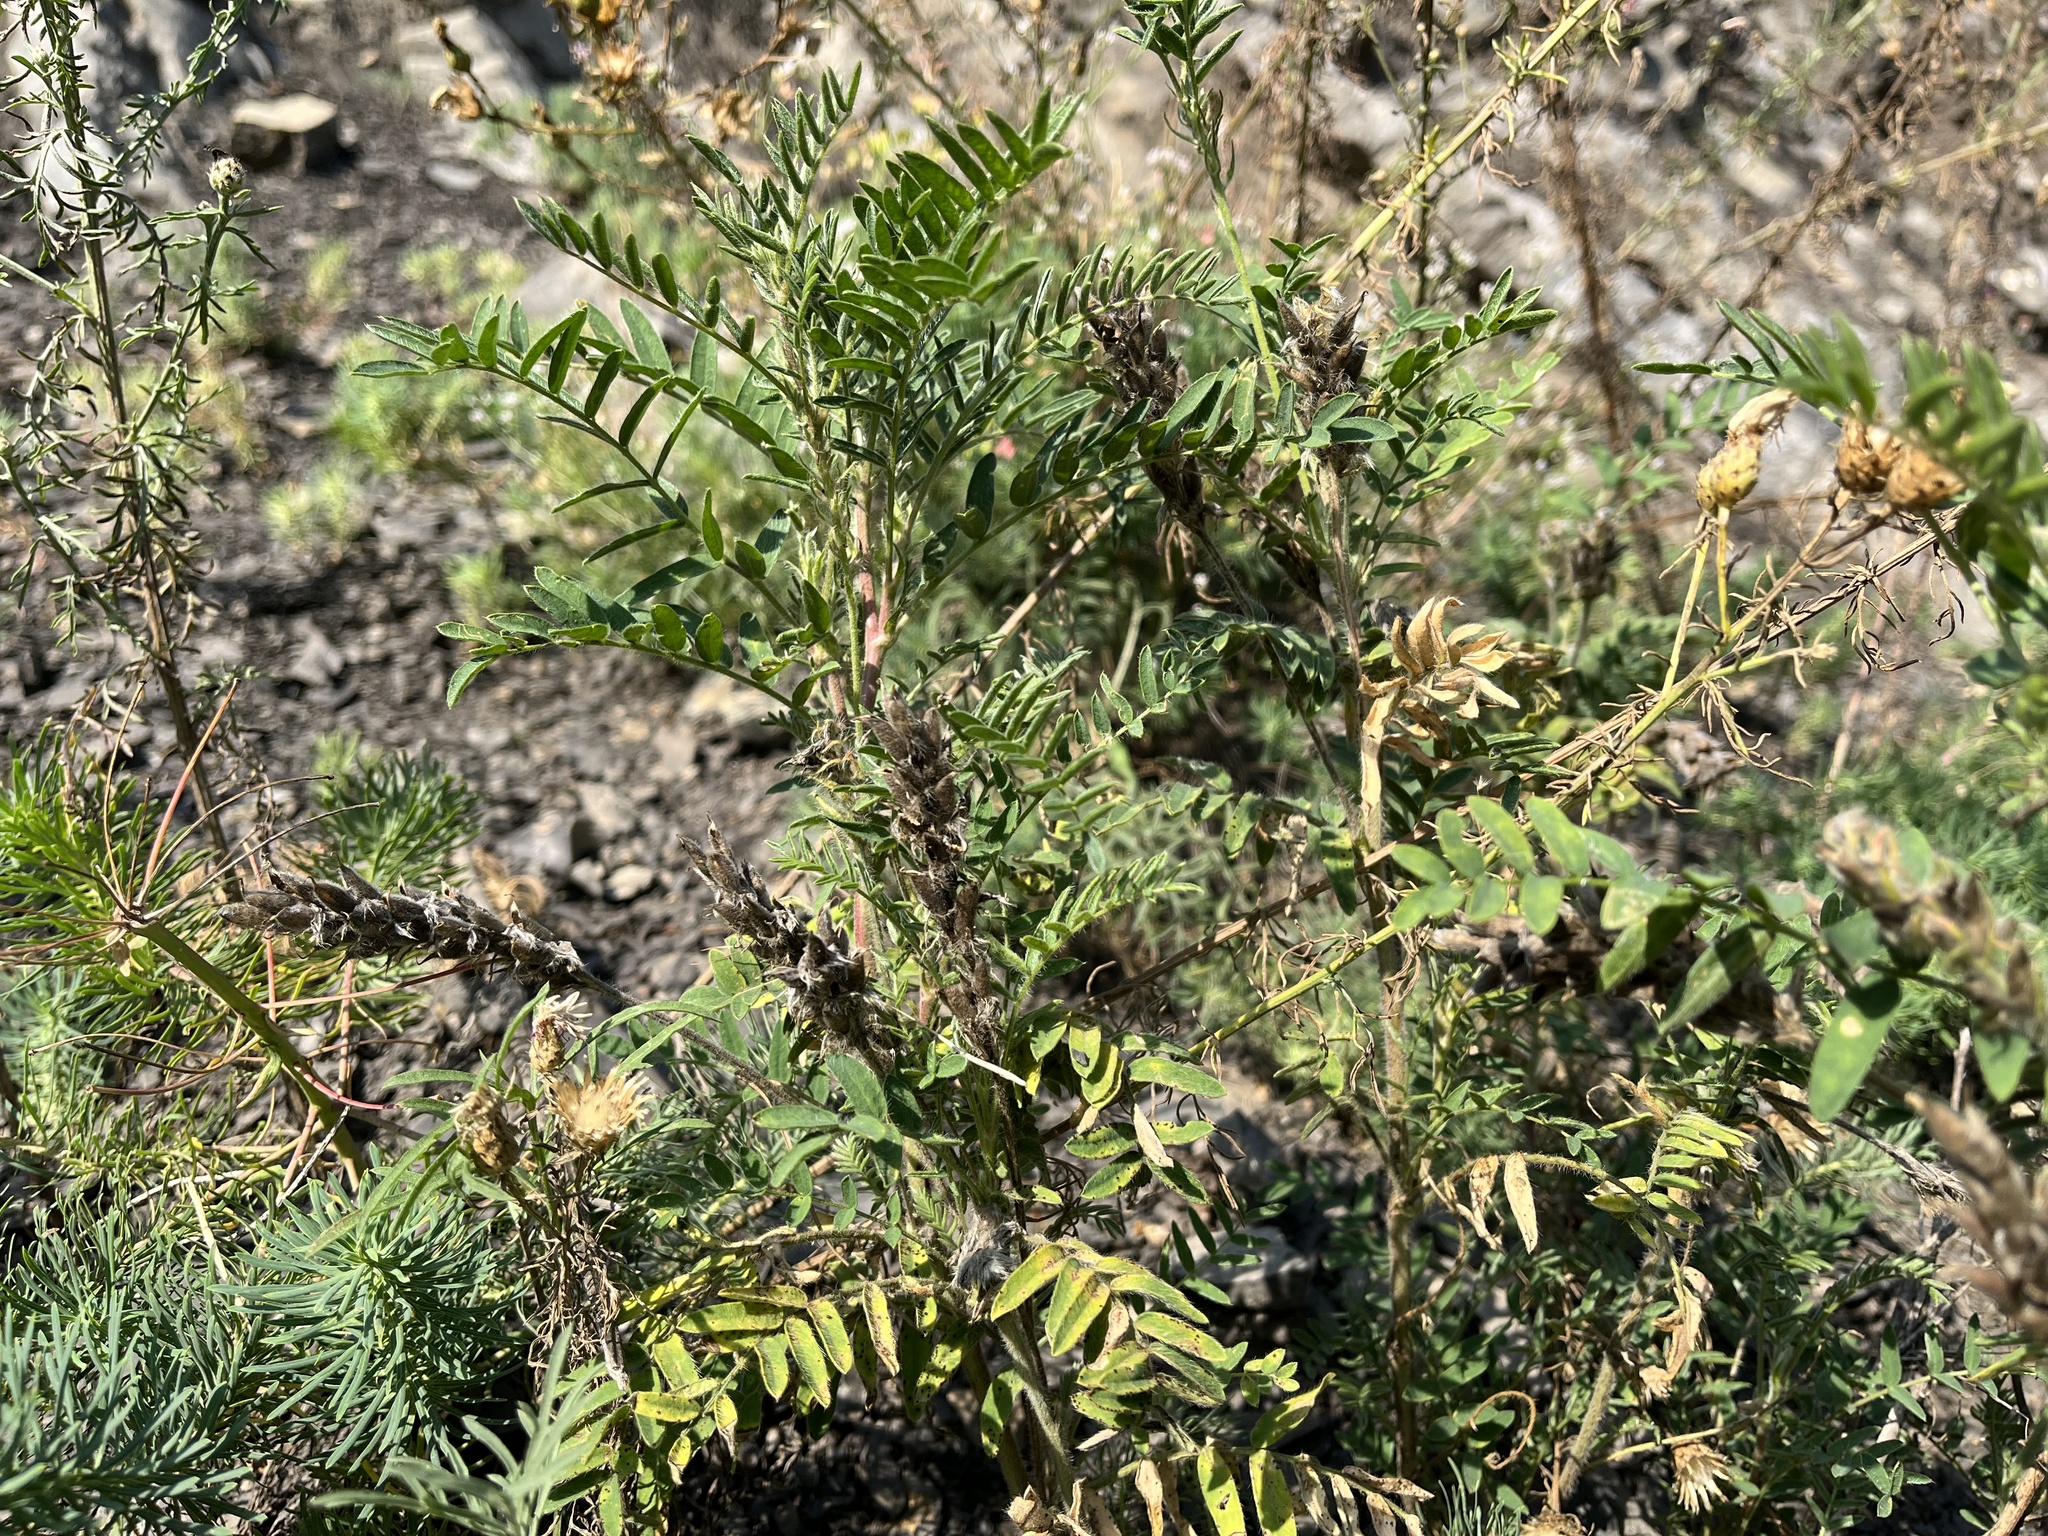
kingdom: Plantae
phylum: Tracheophyta
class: Magnoliopsida
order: Fabales
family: Fabaceae
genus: Oxytropis
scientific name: Oxytropis pilosa
